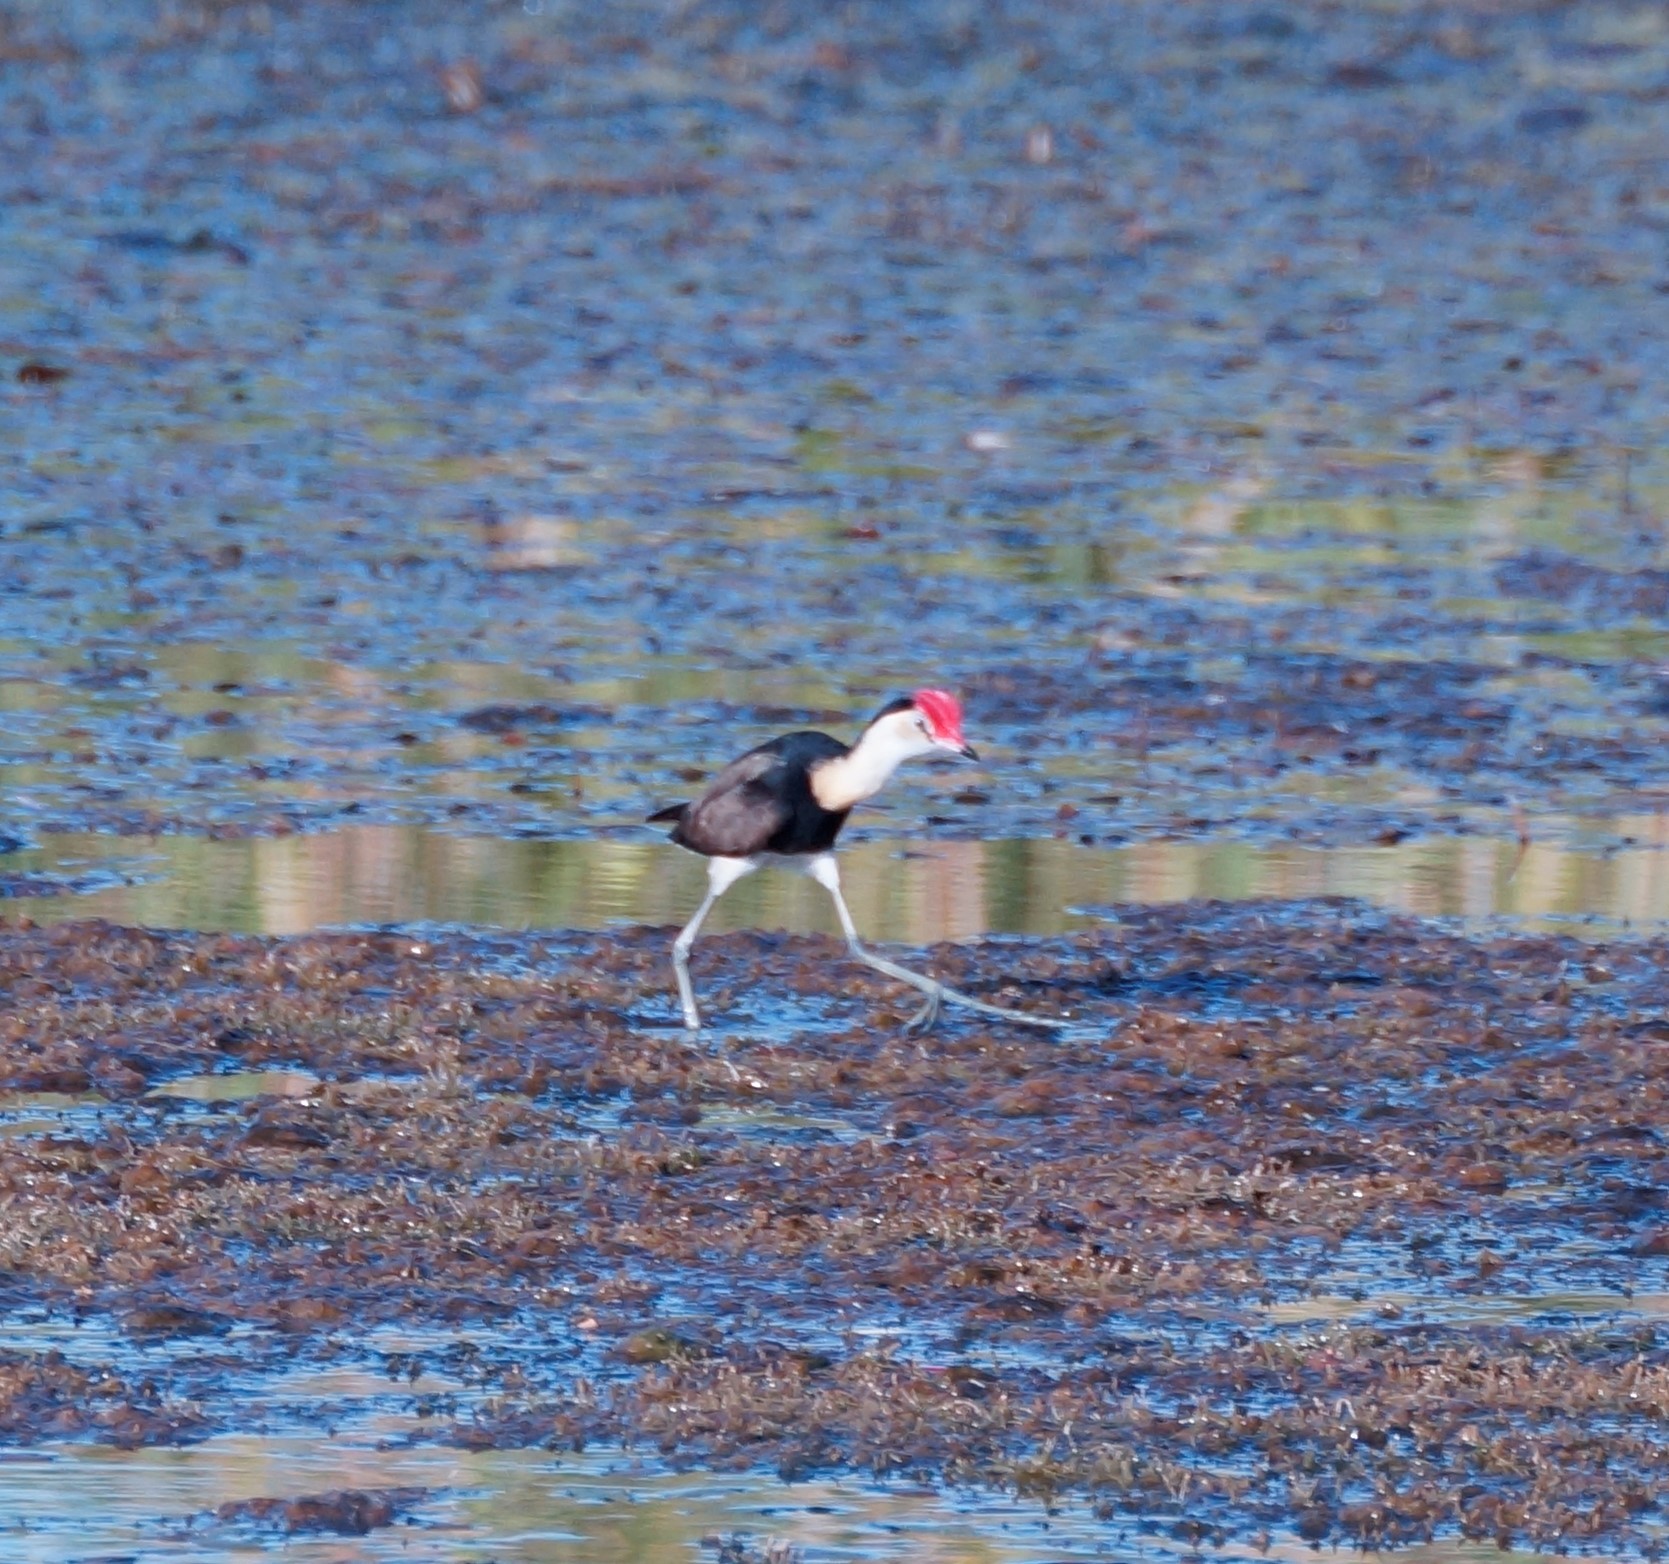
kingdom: Animalia
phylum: Chordata
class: Aves
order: Charadriiformes
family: Jacanidae
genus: Irediparra
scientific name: Irediparra gallinacea
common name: Comb-crested jacana
